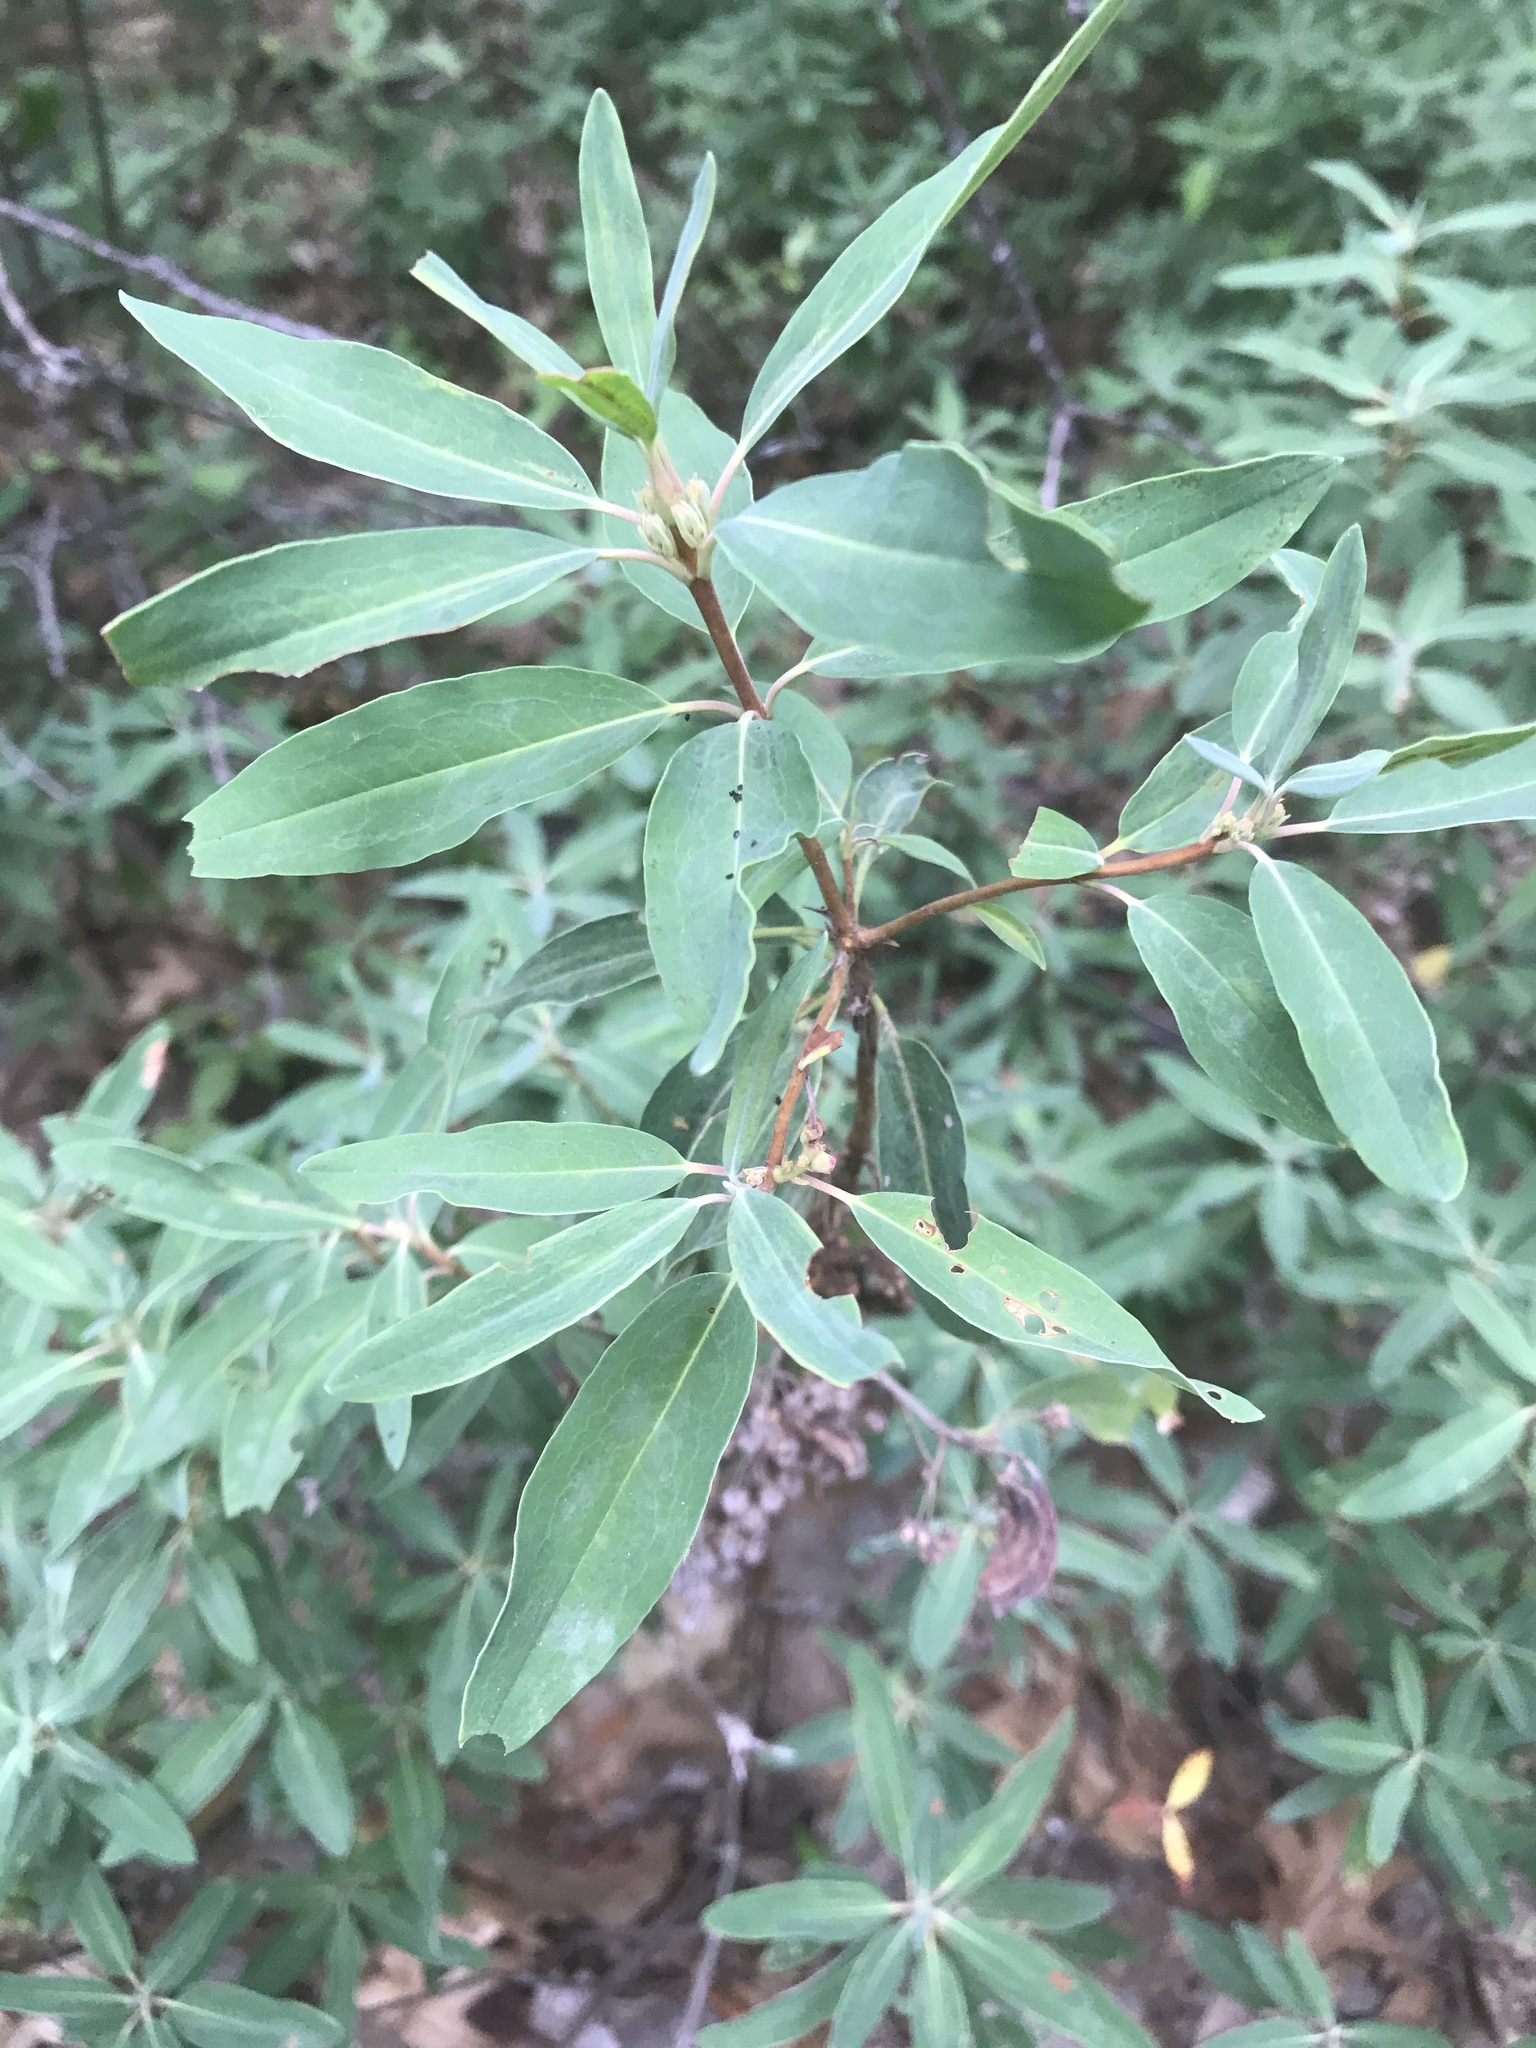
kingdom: Plantae
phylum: Tracheophyta
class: Magnoliopsida
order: Ericales
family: Ericaceae
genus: Kalmia
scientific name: Kalmia angustifolia
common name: Sheep-laurel
